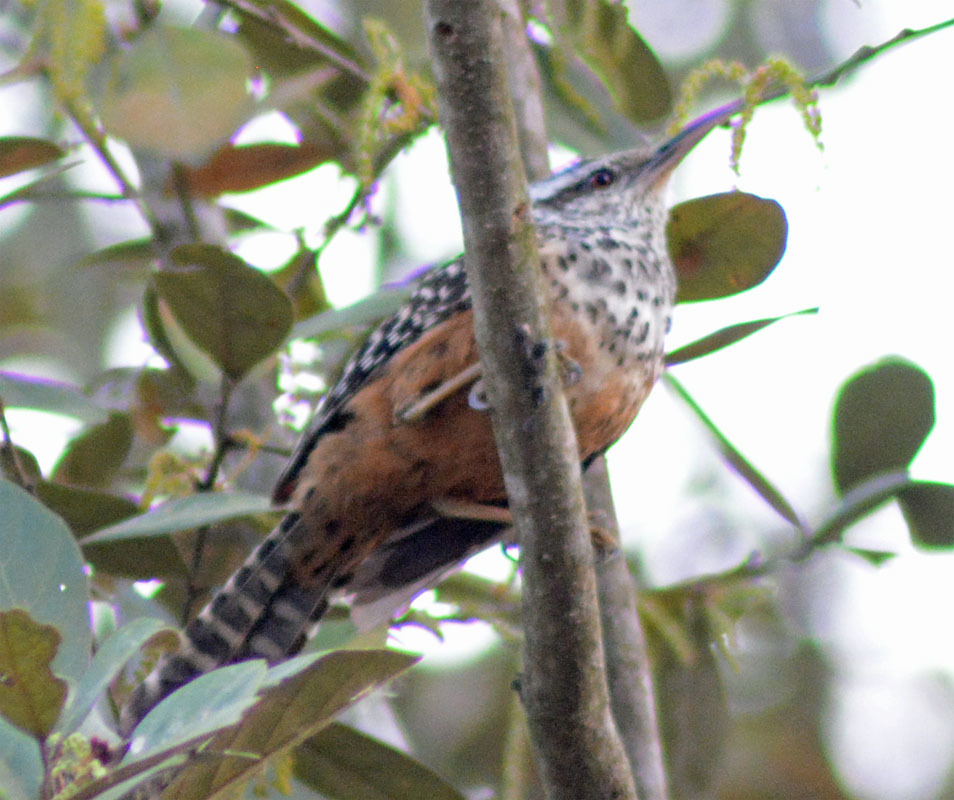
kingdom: Animalia
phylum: Chordata
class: Aves
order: Passeriformes
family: Troglodytidae
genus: Campylorhynchus
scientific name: Campylorhynchus zonatus
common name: Band-backed wren
